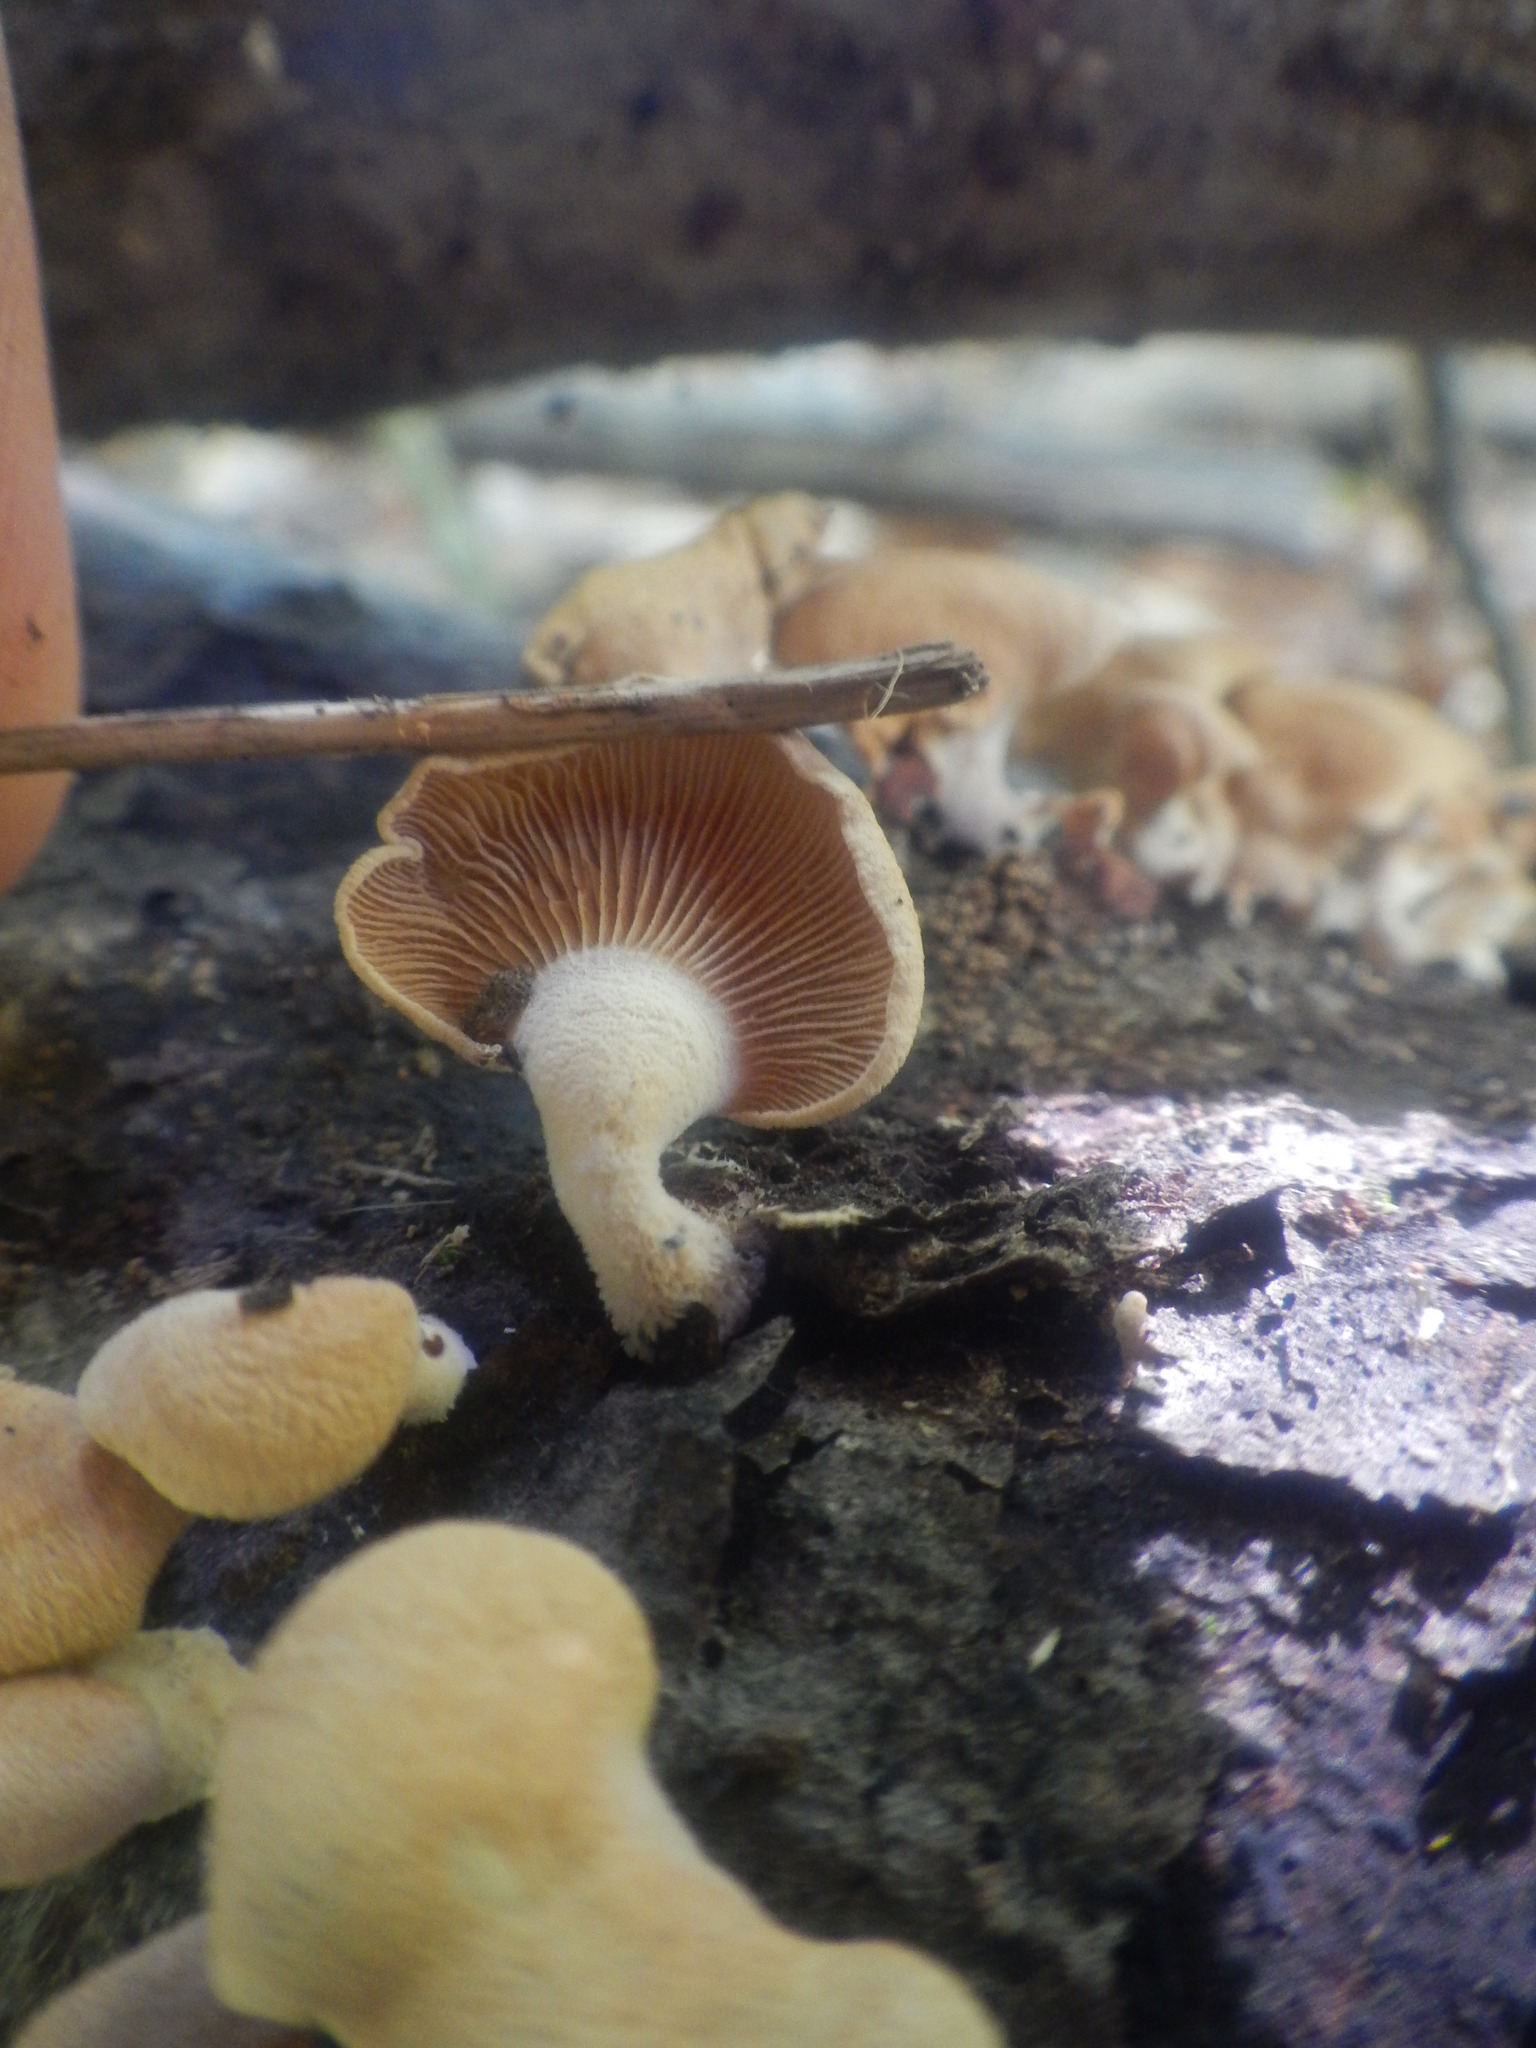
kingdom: Fungi
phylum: Basidiomycota
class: Agaricomycetes
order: Agaricales
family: Mycenaceae
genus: Panellus
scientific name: Panellus stipticus
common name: Bitter oysterling
